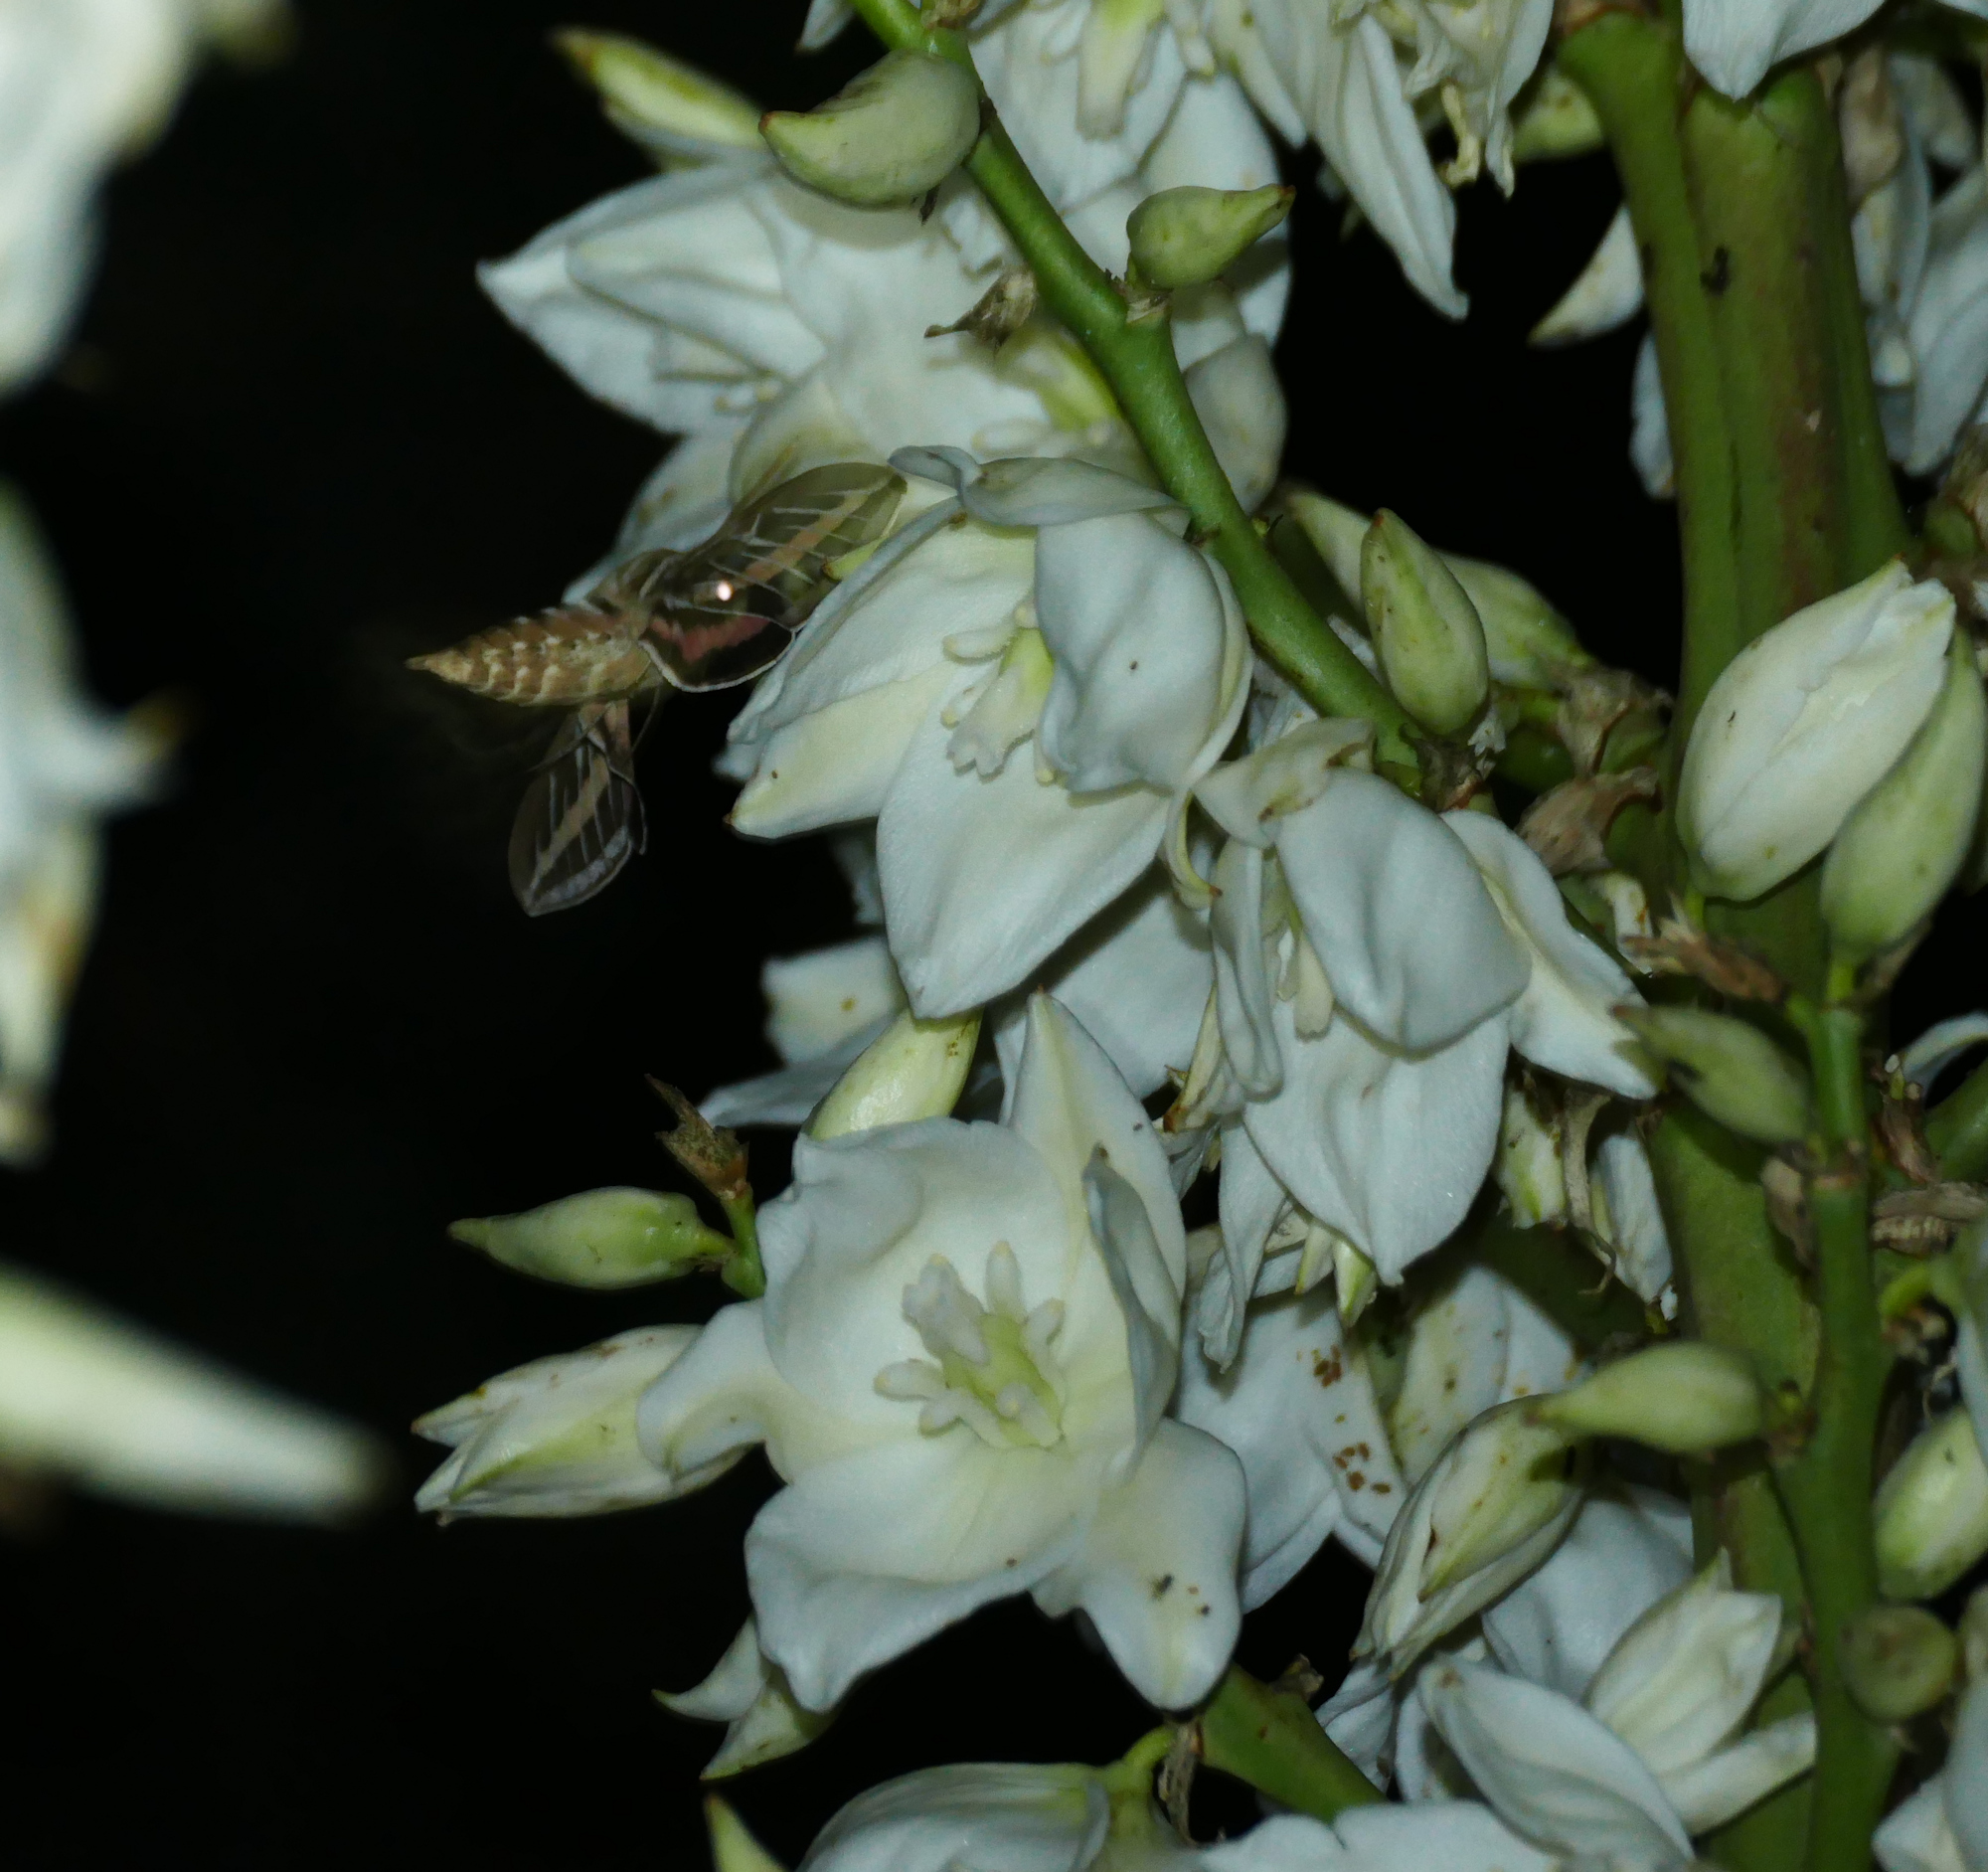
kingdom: Animalia
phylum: Arthropoda
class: Insecta
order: Lepidoptera
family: Sphingidae
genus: Hyles
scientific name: Hyles lineata
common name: White-lined sphinx
